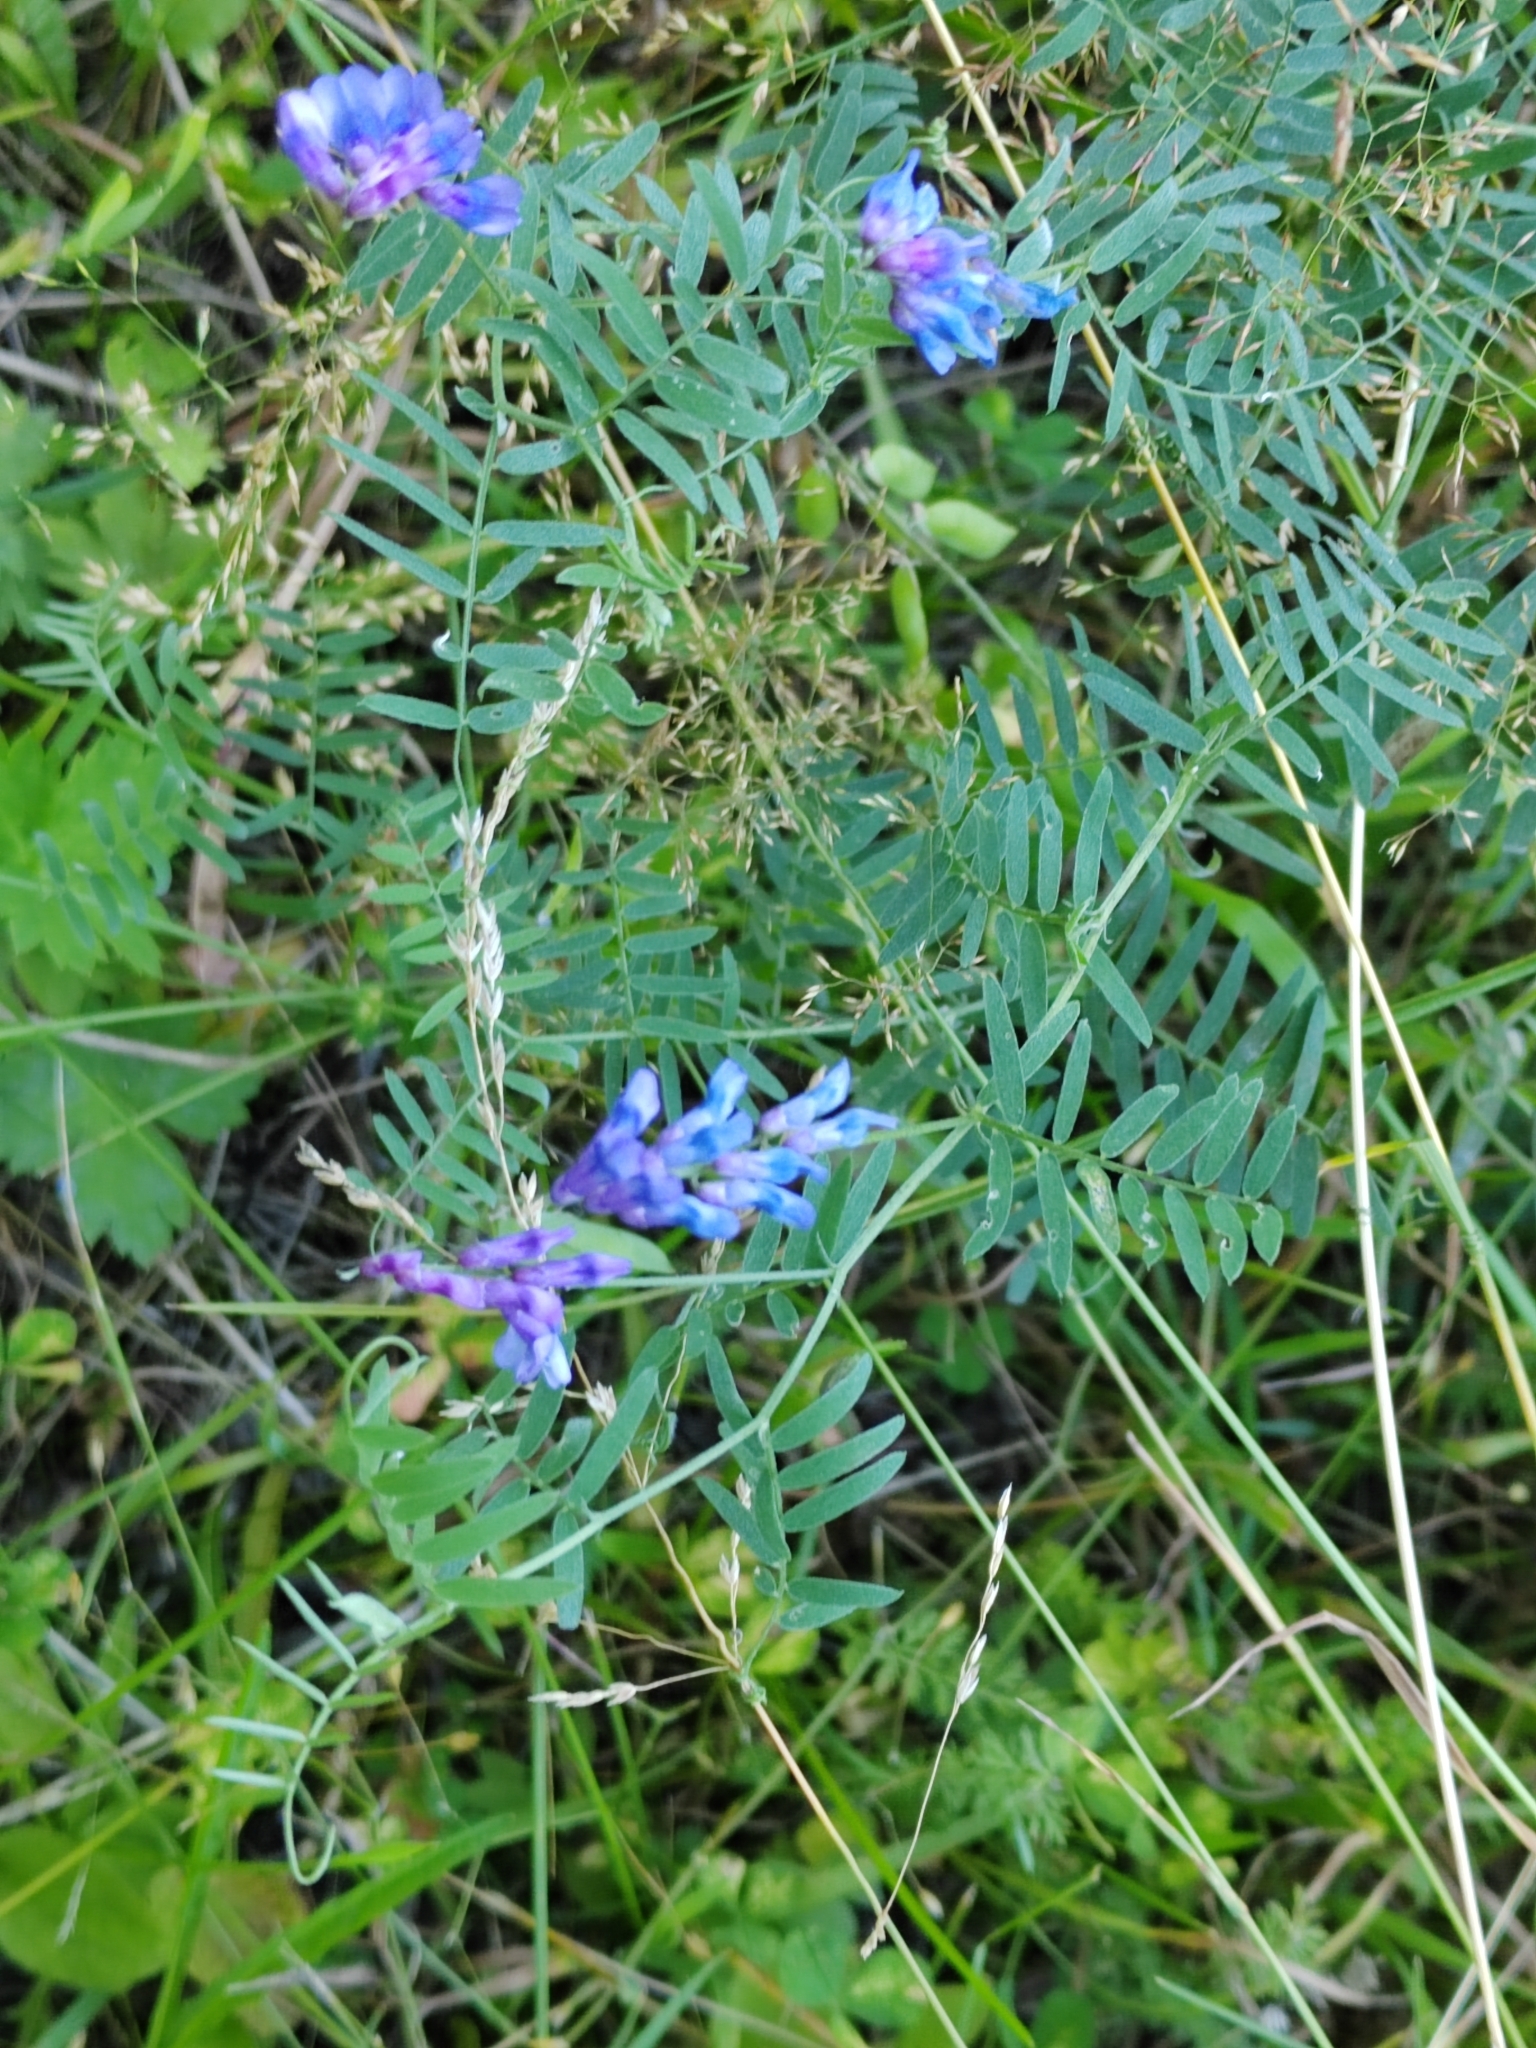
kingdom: Plantae
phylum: Tracheophyta
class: Magnoliopsida
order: Fabales
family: Fabaceae
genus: Vicia
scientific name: Vicia cracca
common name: Bird vetch
